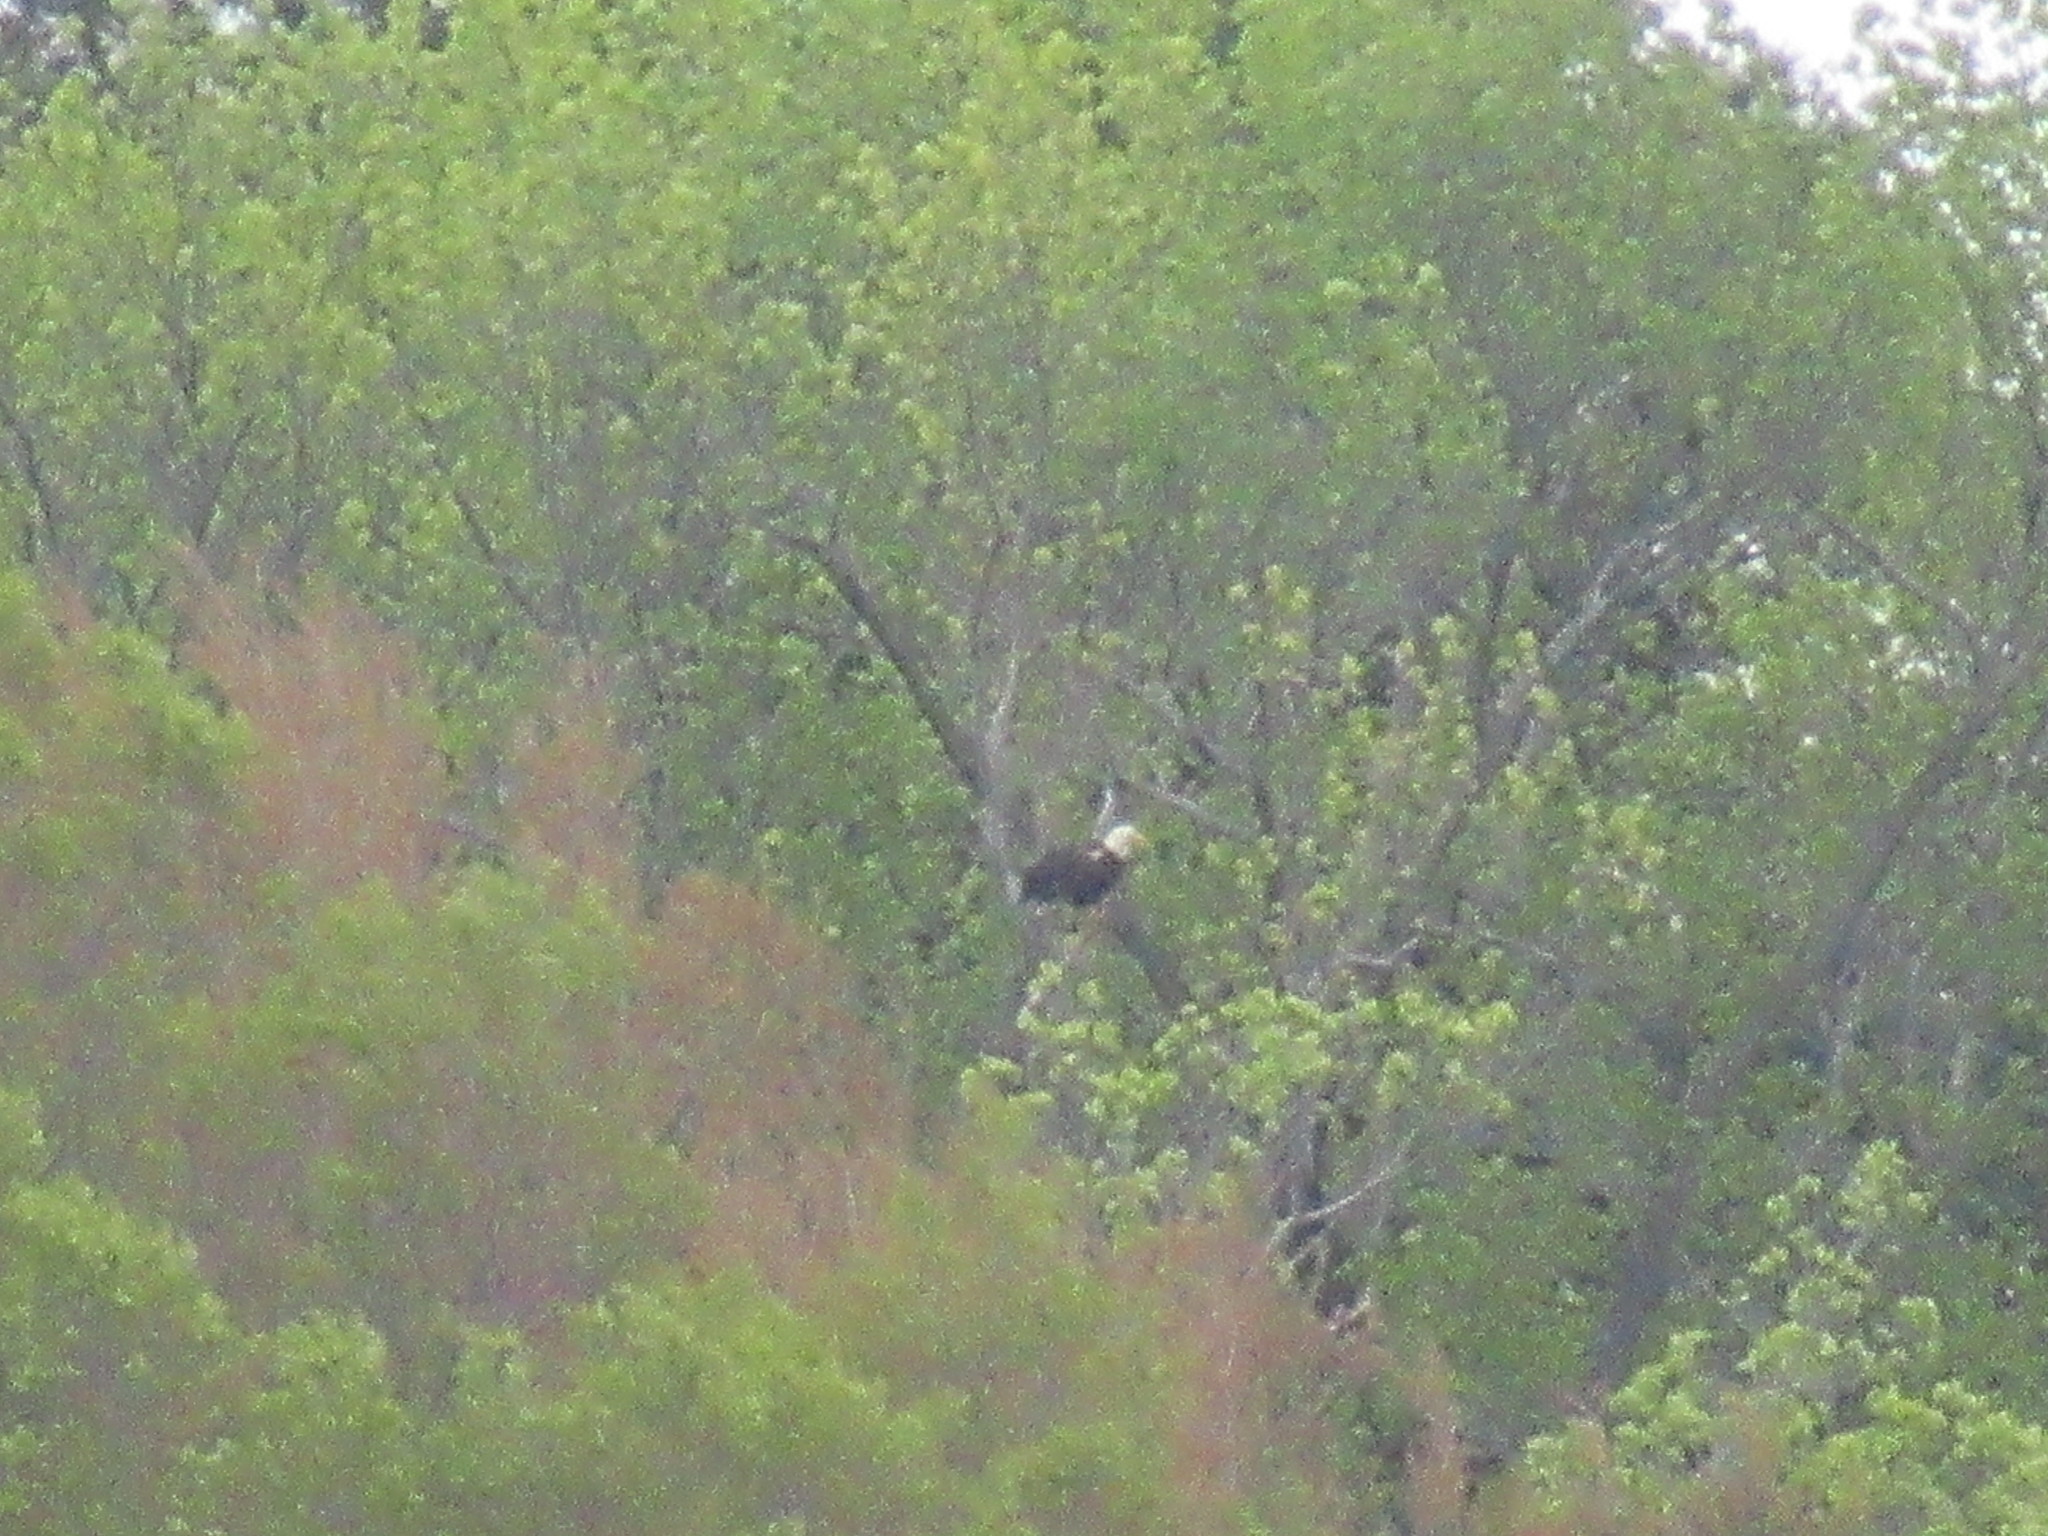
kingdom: Animalia
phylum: Chordata
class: Aves
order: Accipitriformes
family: Accipitridae
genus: Haliaeetus
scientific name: Haliaeetus leucocephalus
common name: Bald eagle
